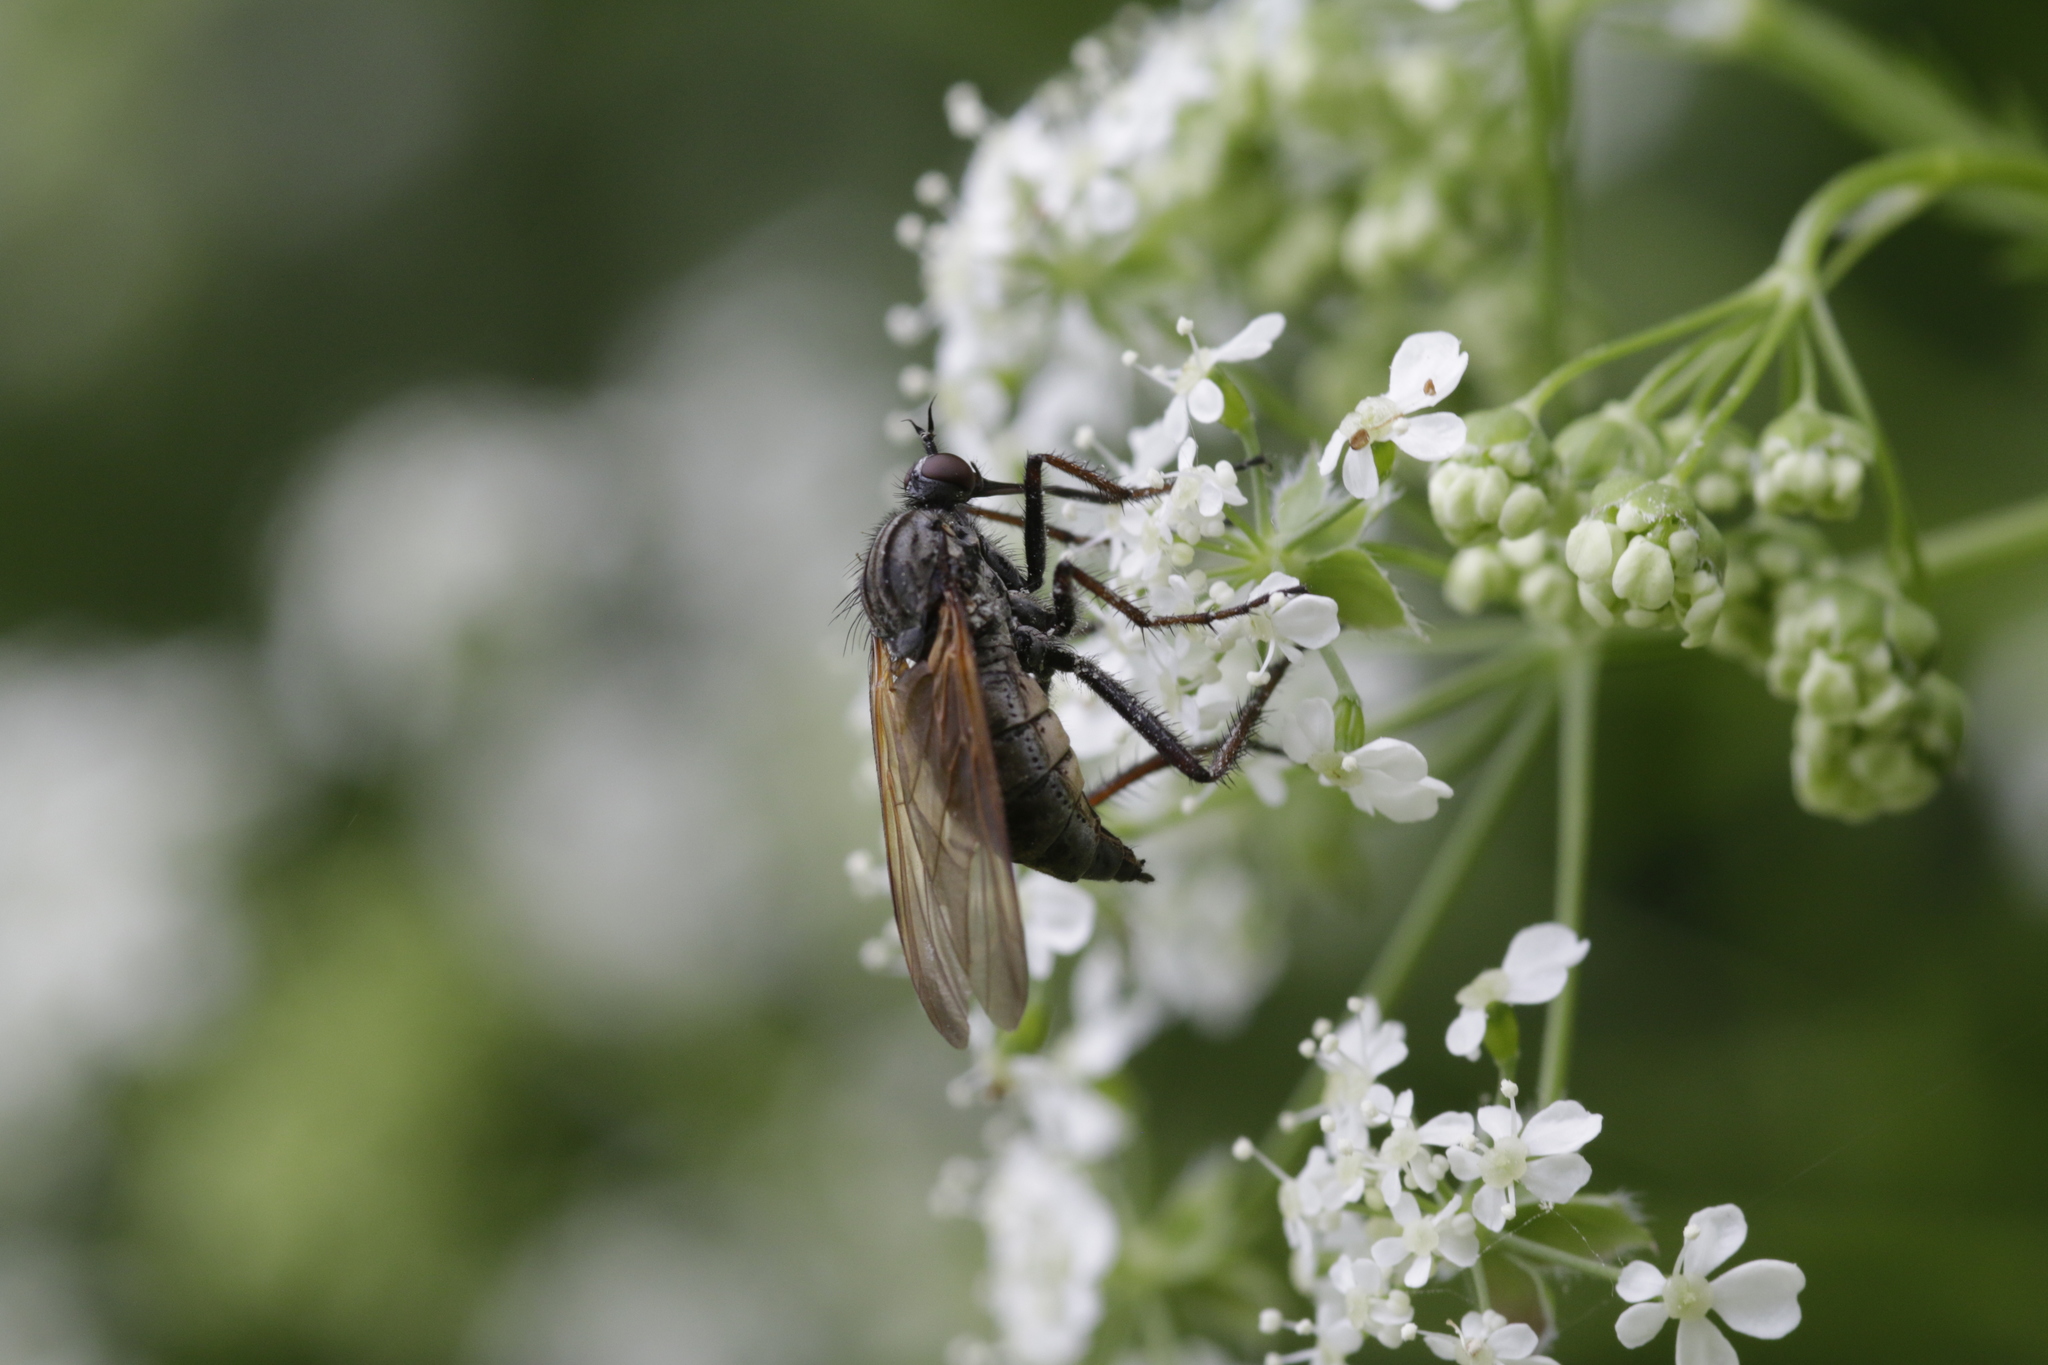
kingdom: Animalia
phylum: Arthropoda
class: Insecta
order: Diptera
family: Empididae
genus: Empis
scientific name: Empis tessellata
